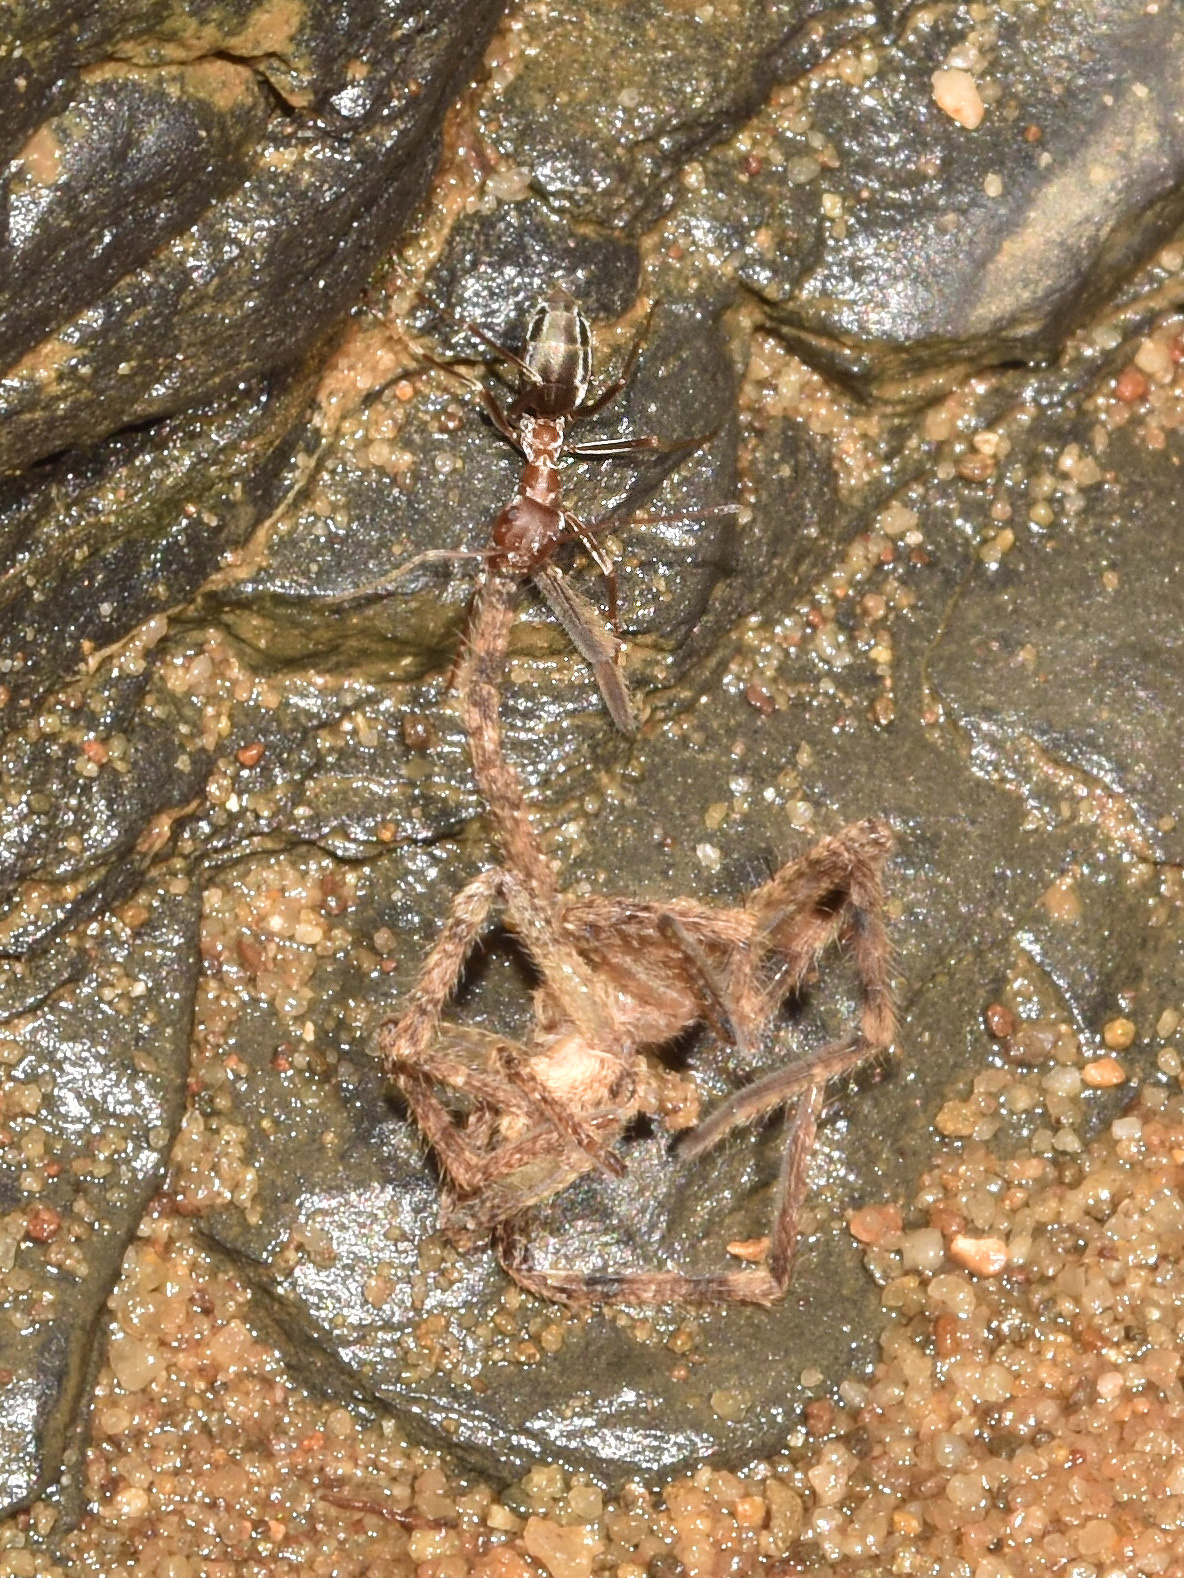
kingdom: Animalia
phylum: Arthropoda
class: Insecta
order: Hymenoptera
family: Formicidae
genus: Anoplolepis
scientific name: Anoplolepis custodiens
